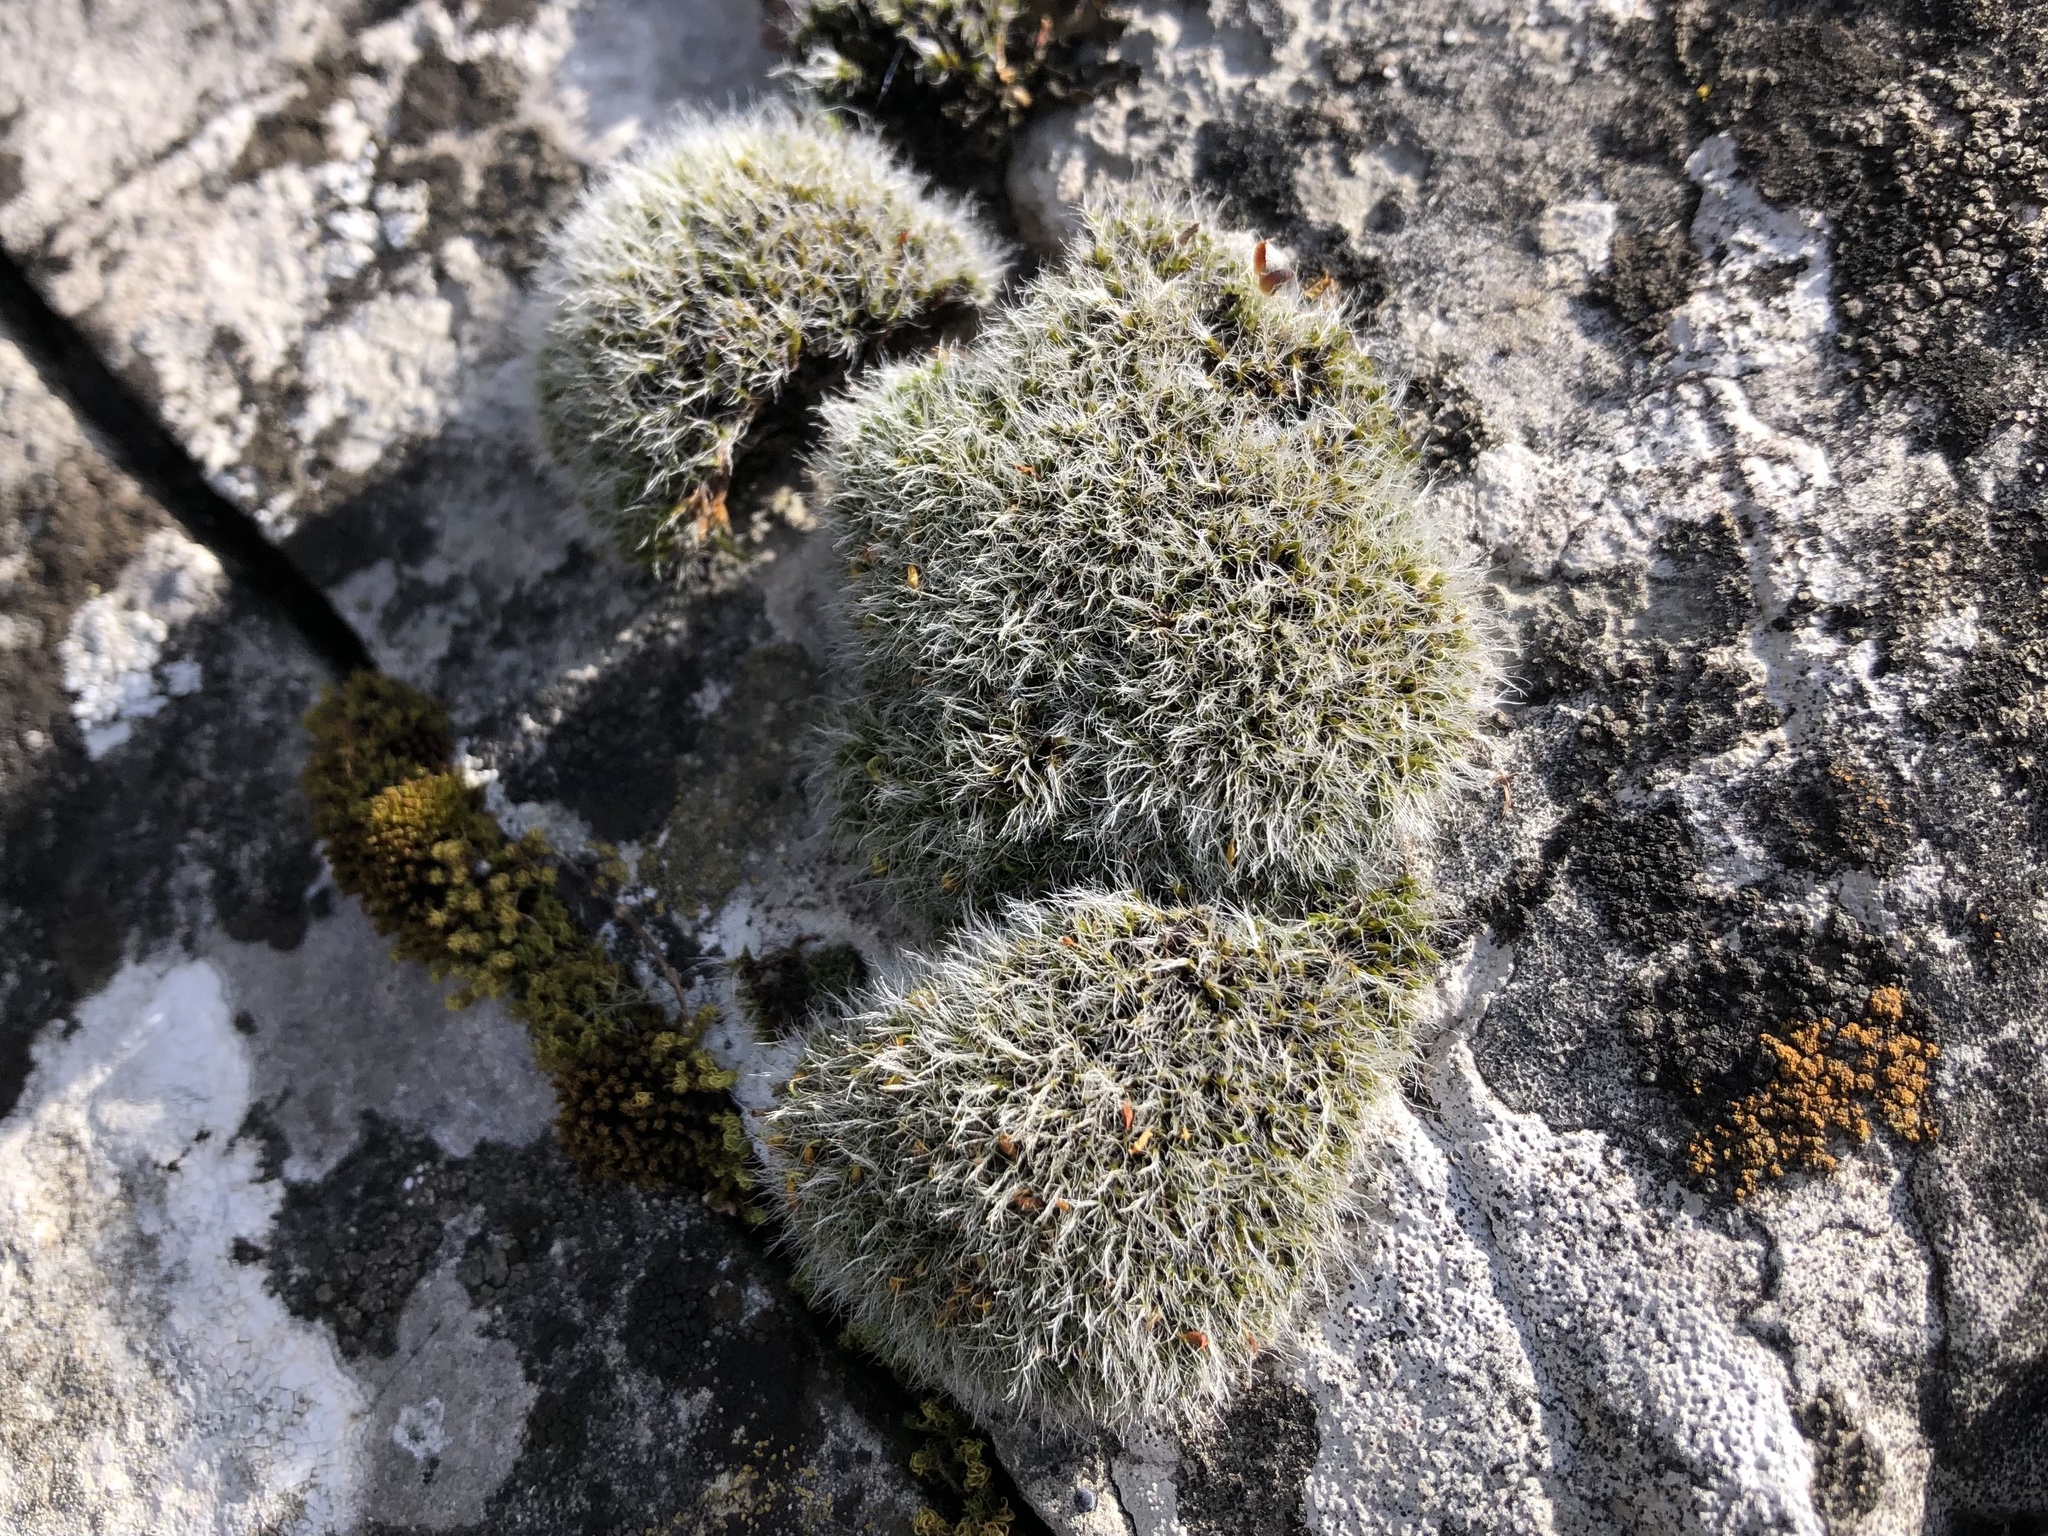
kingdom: Plantae
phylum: Bryophyta
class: Bryopsida
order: Grimmiales
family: Grimmiaceae
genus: Grimmia
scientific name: Grimmia pulvinata
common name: Grey-cushioned grimmia
